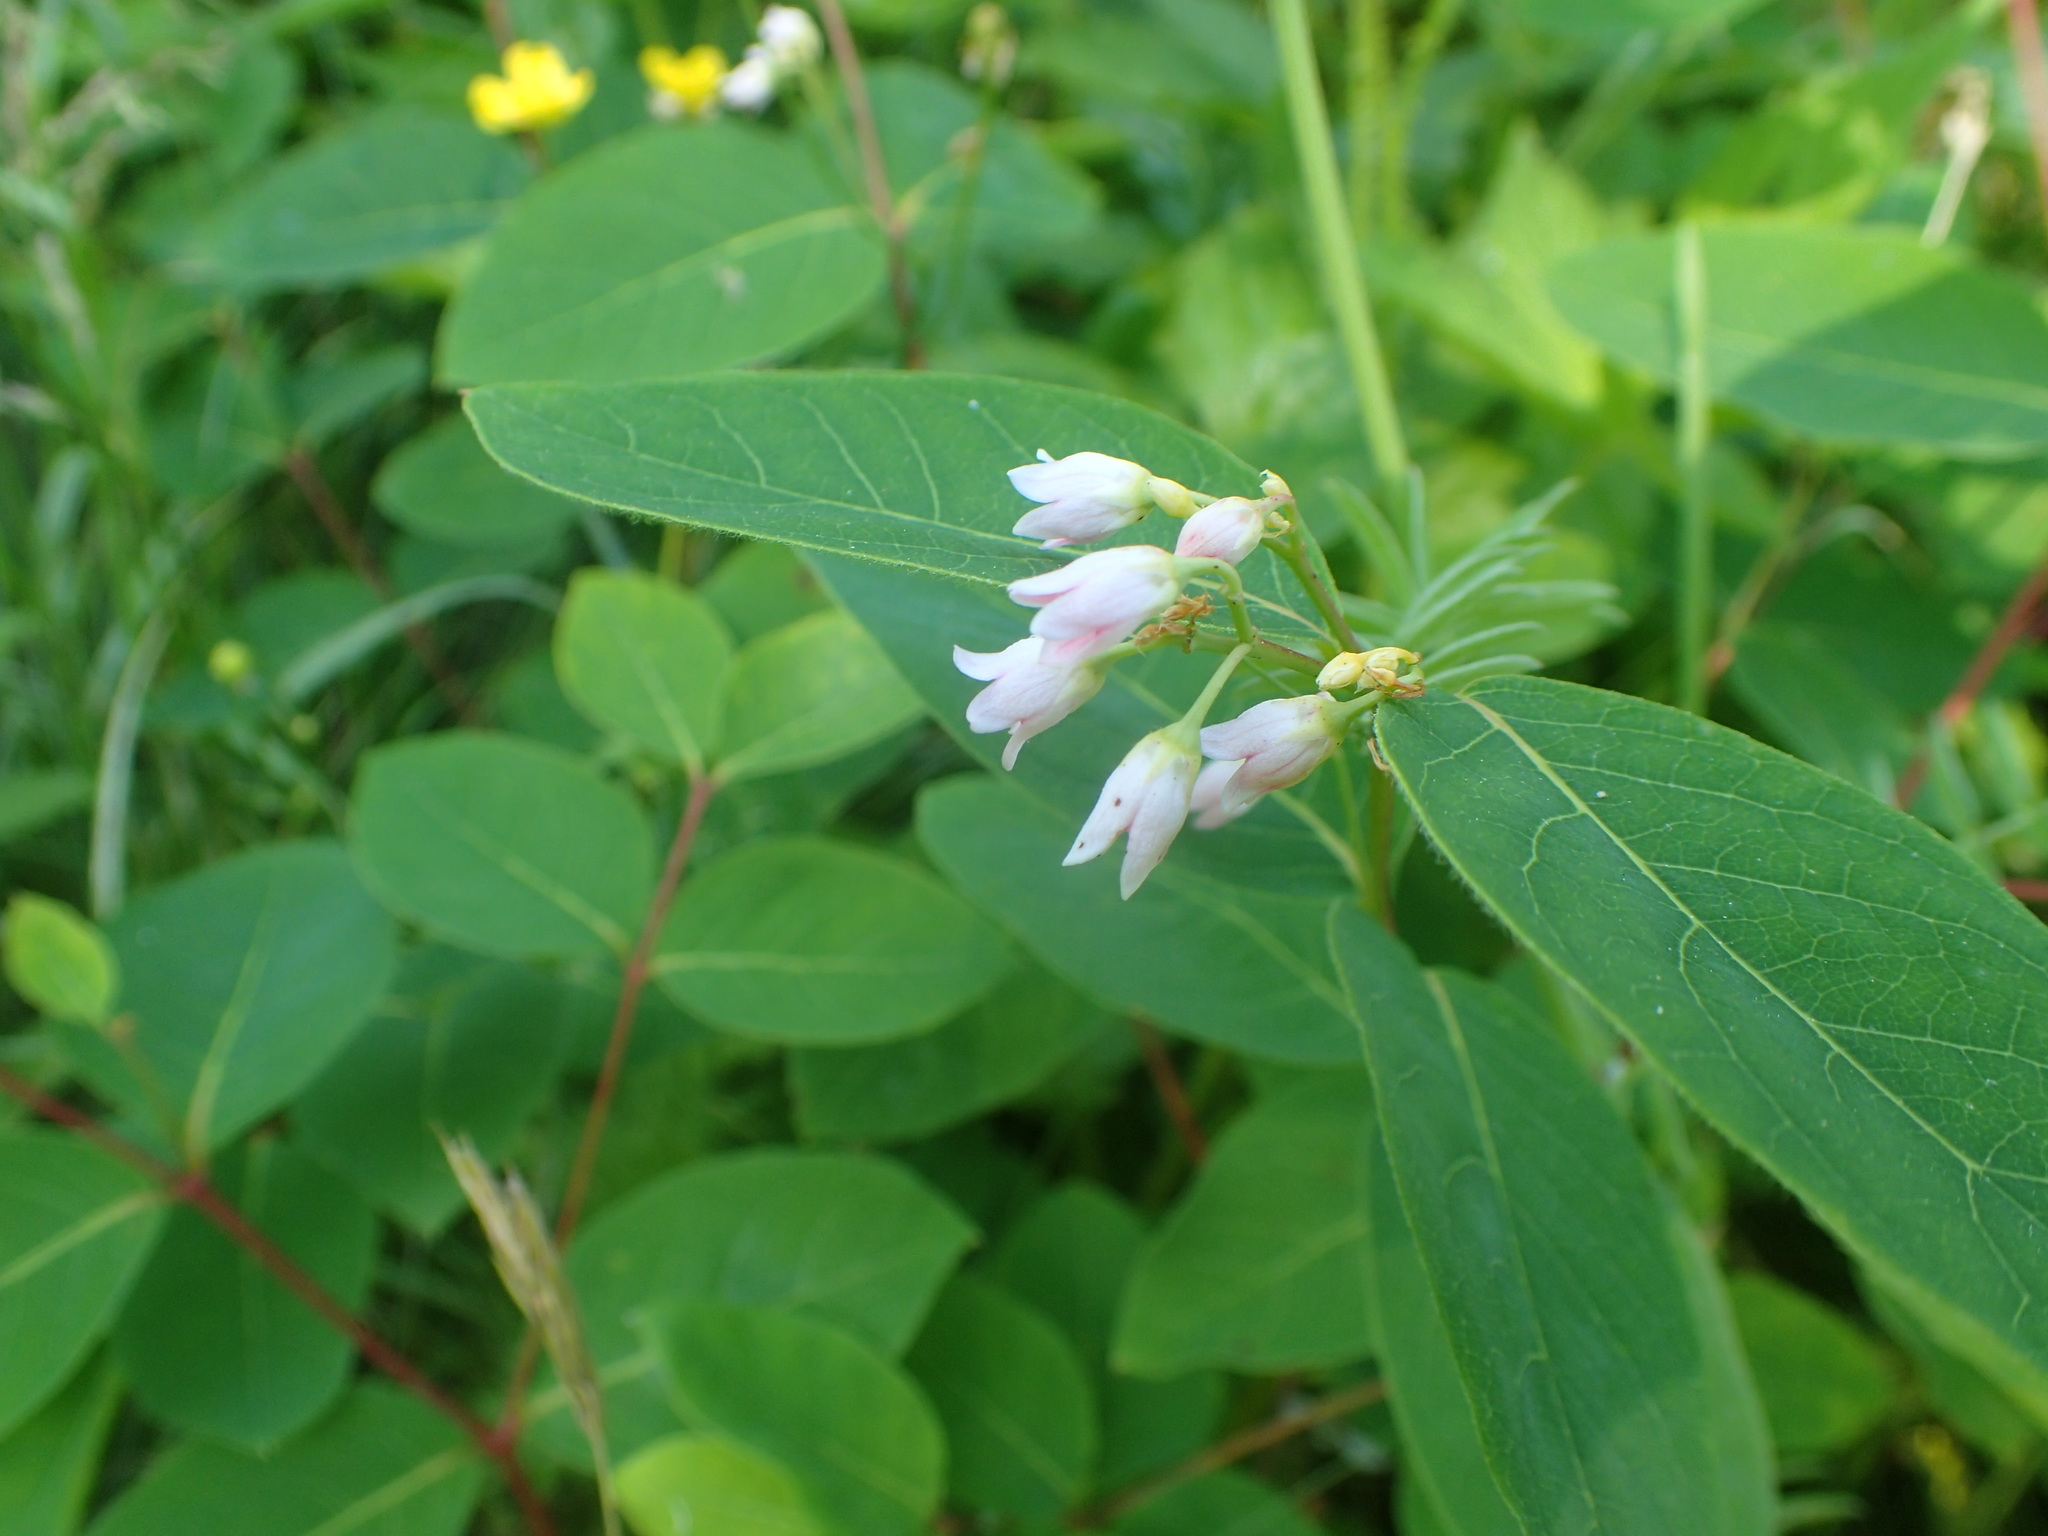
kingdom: Plantae
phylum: Tracheophyta
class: Magnoliopsida
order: Gentianales
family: Apocynaceae
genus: Apocynum
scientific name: Apocynum androsaemifolium
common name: Spreading dogbane
